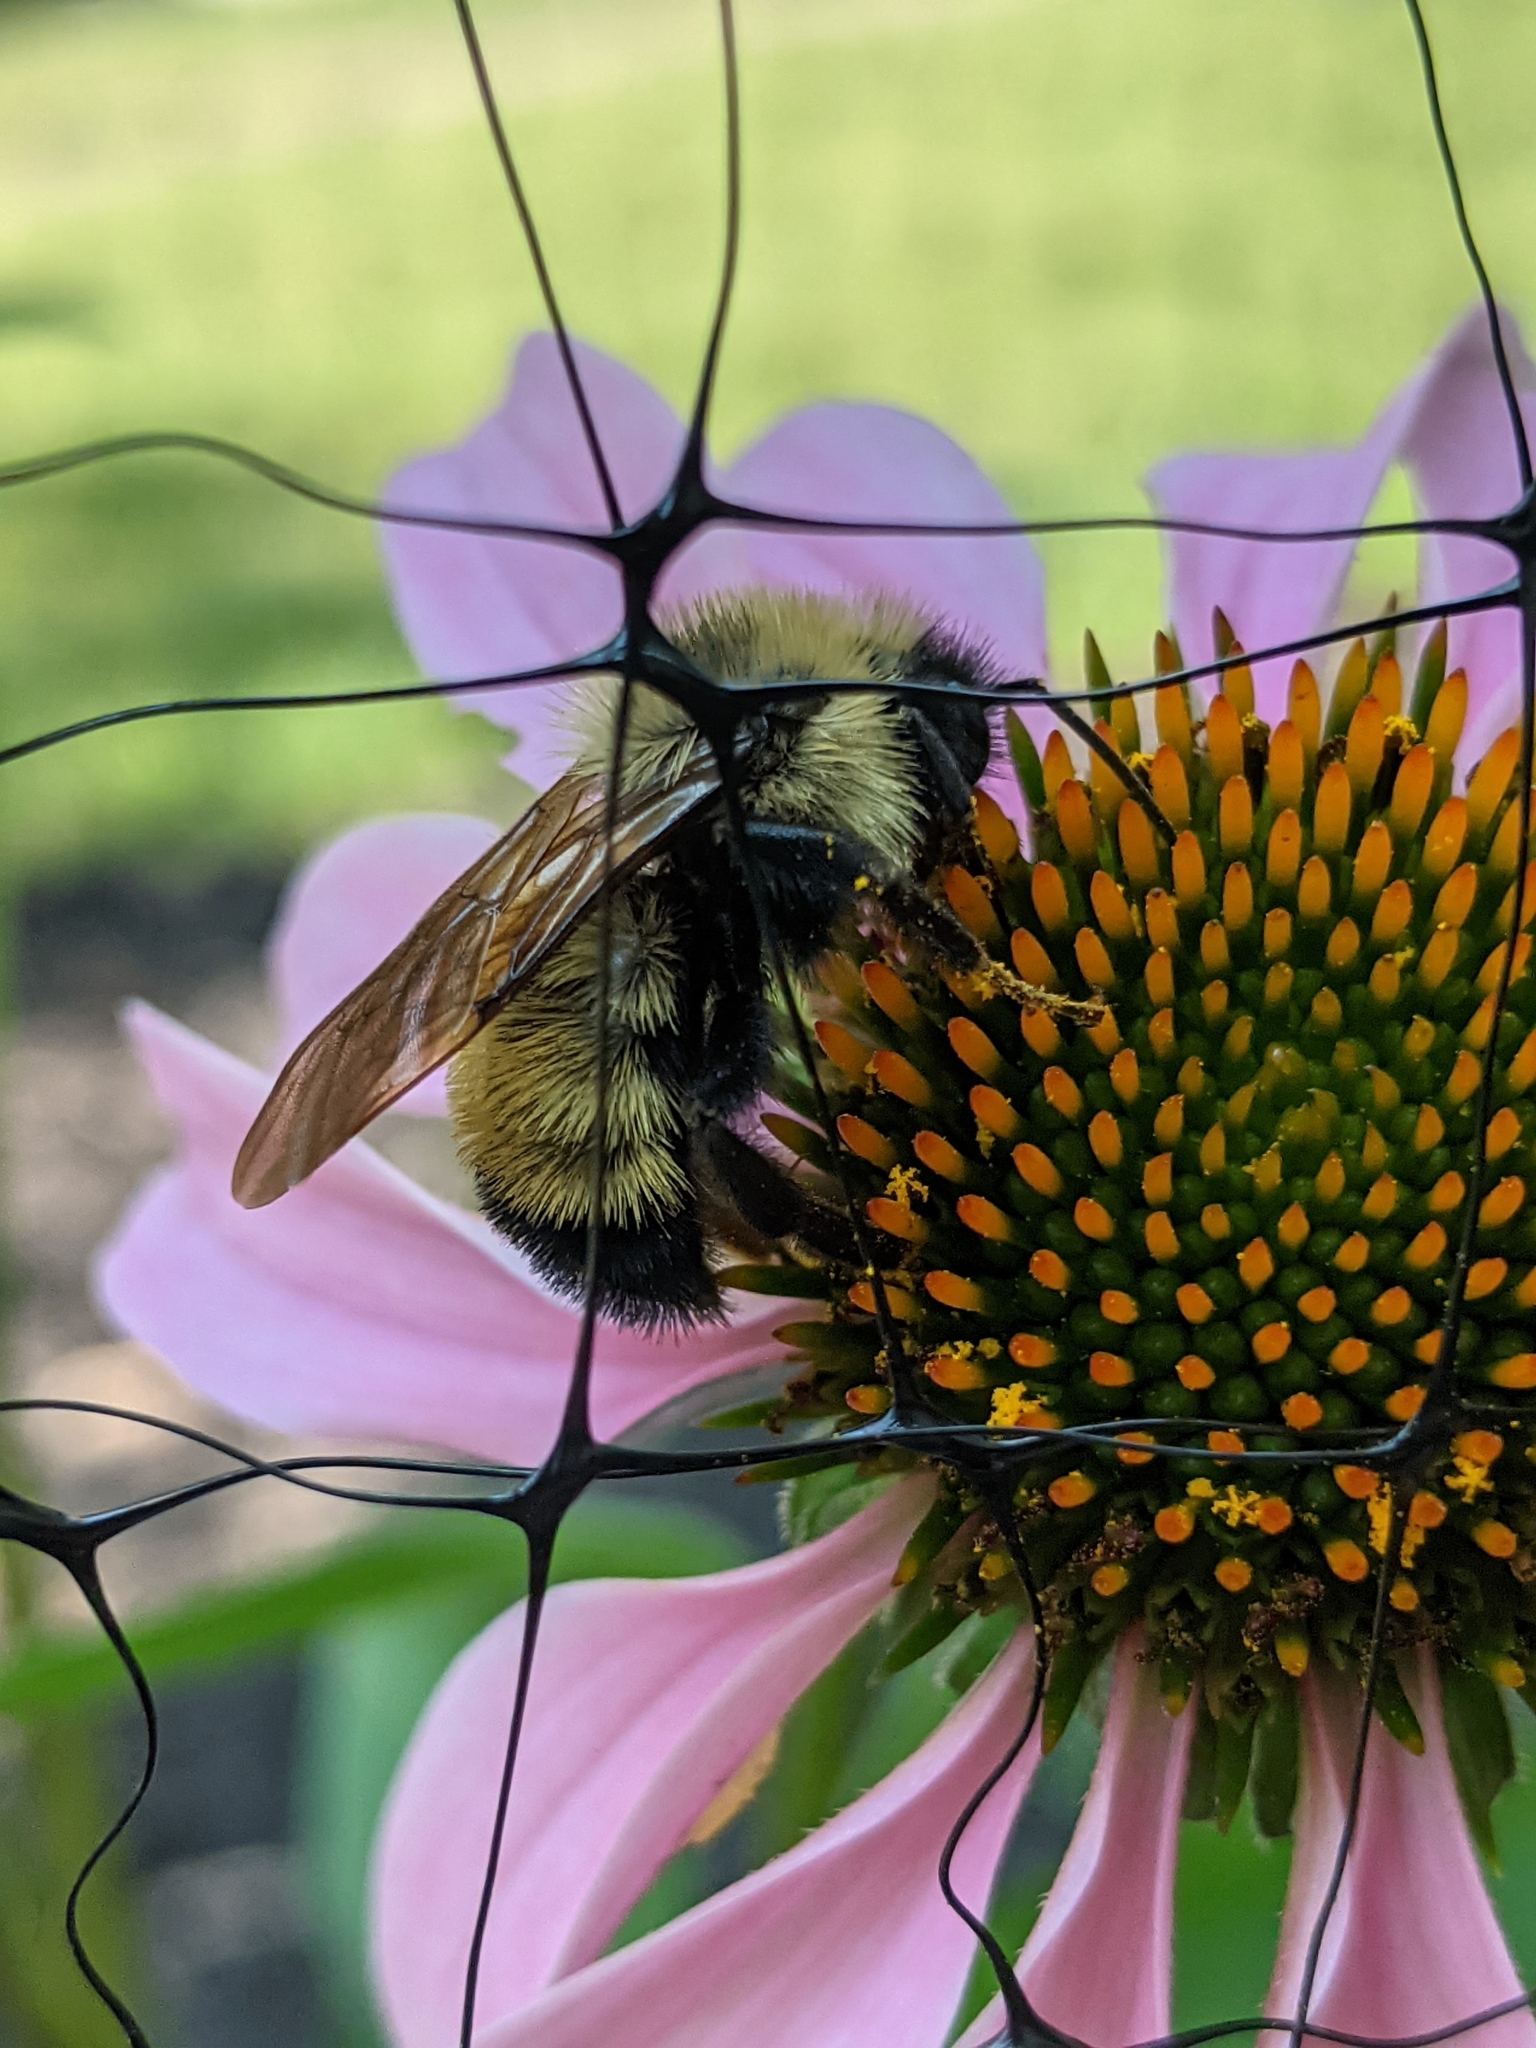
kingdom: Animalia
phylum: Arthropoda
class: Insecta
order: Hymenoptera
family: Apidae
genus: Bombus
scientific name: Bombus citrinus
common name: Lemon cuckoo bumble bee
